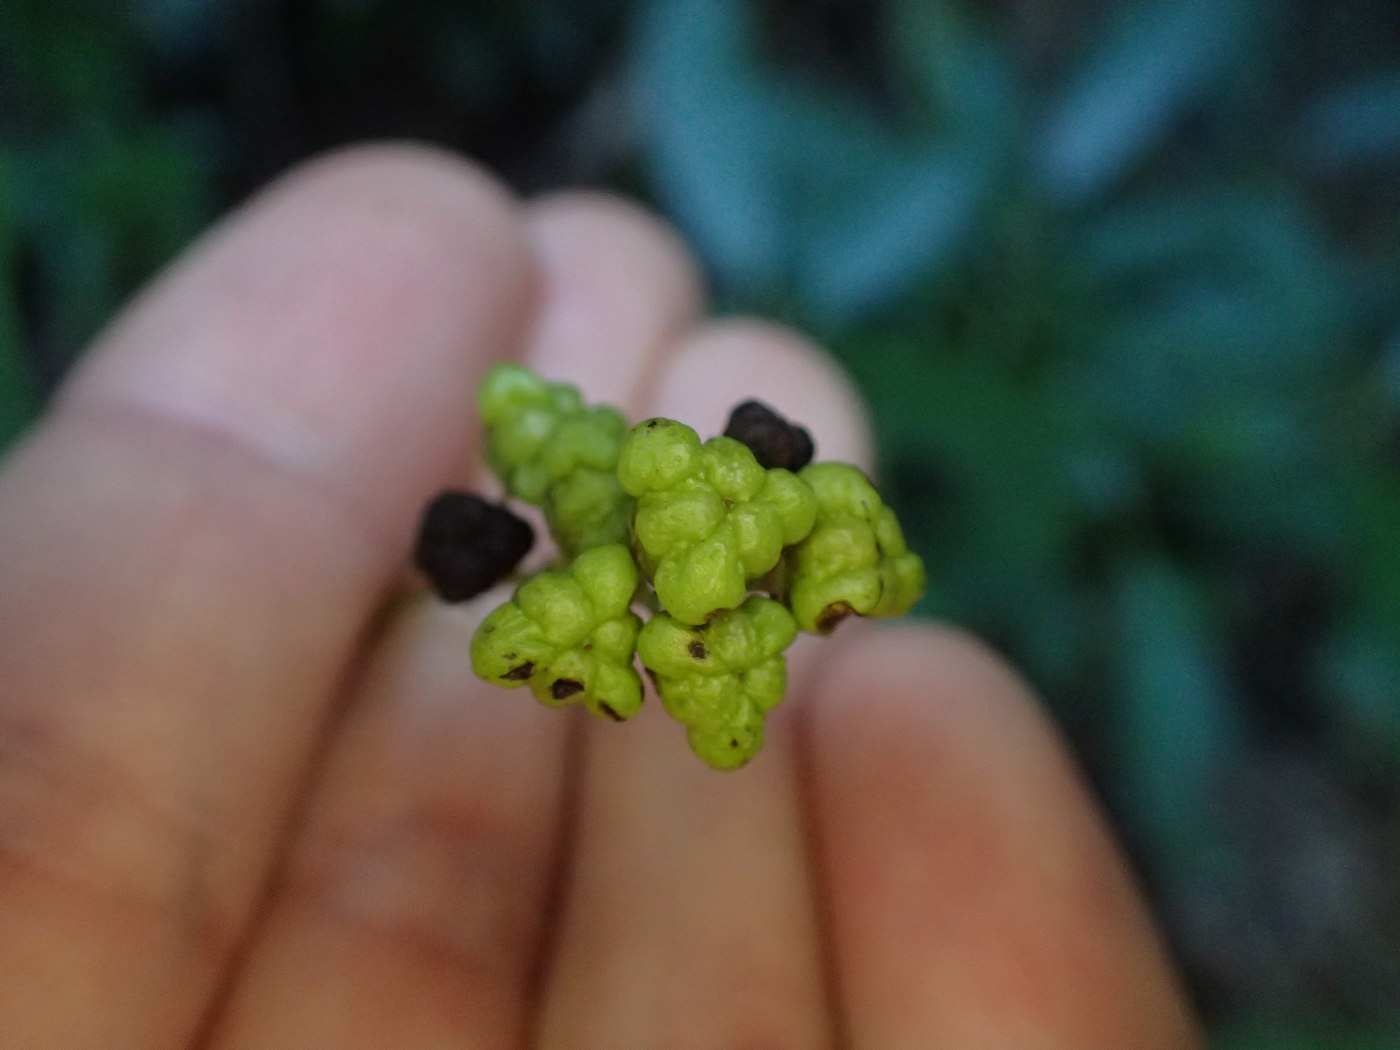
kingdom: Plantae
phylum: Tracheophyta
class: Magnoliopsida
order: Rosales
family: Rhamnaceae
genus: Ceanothus
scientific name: Ceanothus americanus
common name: Redroot
